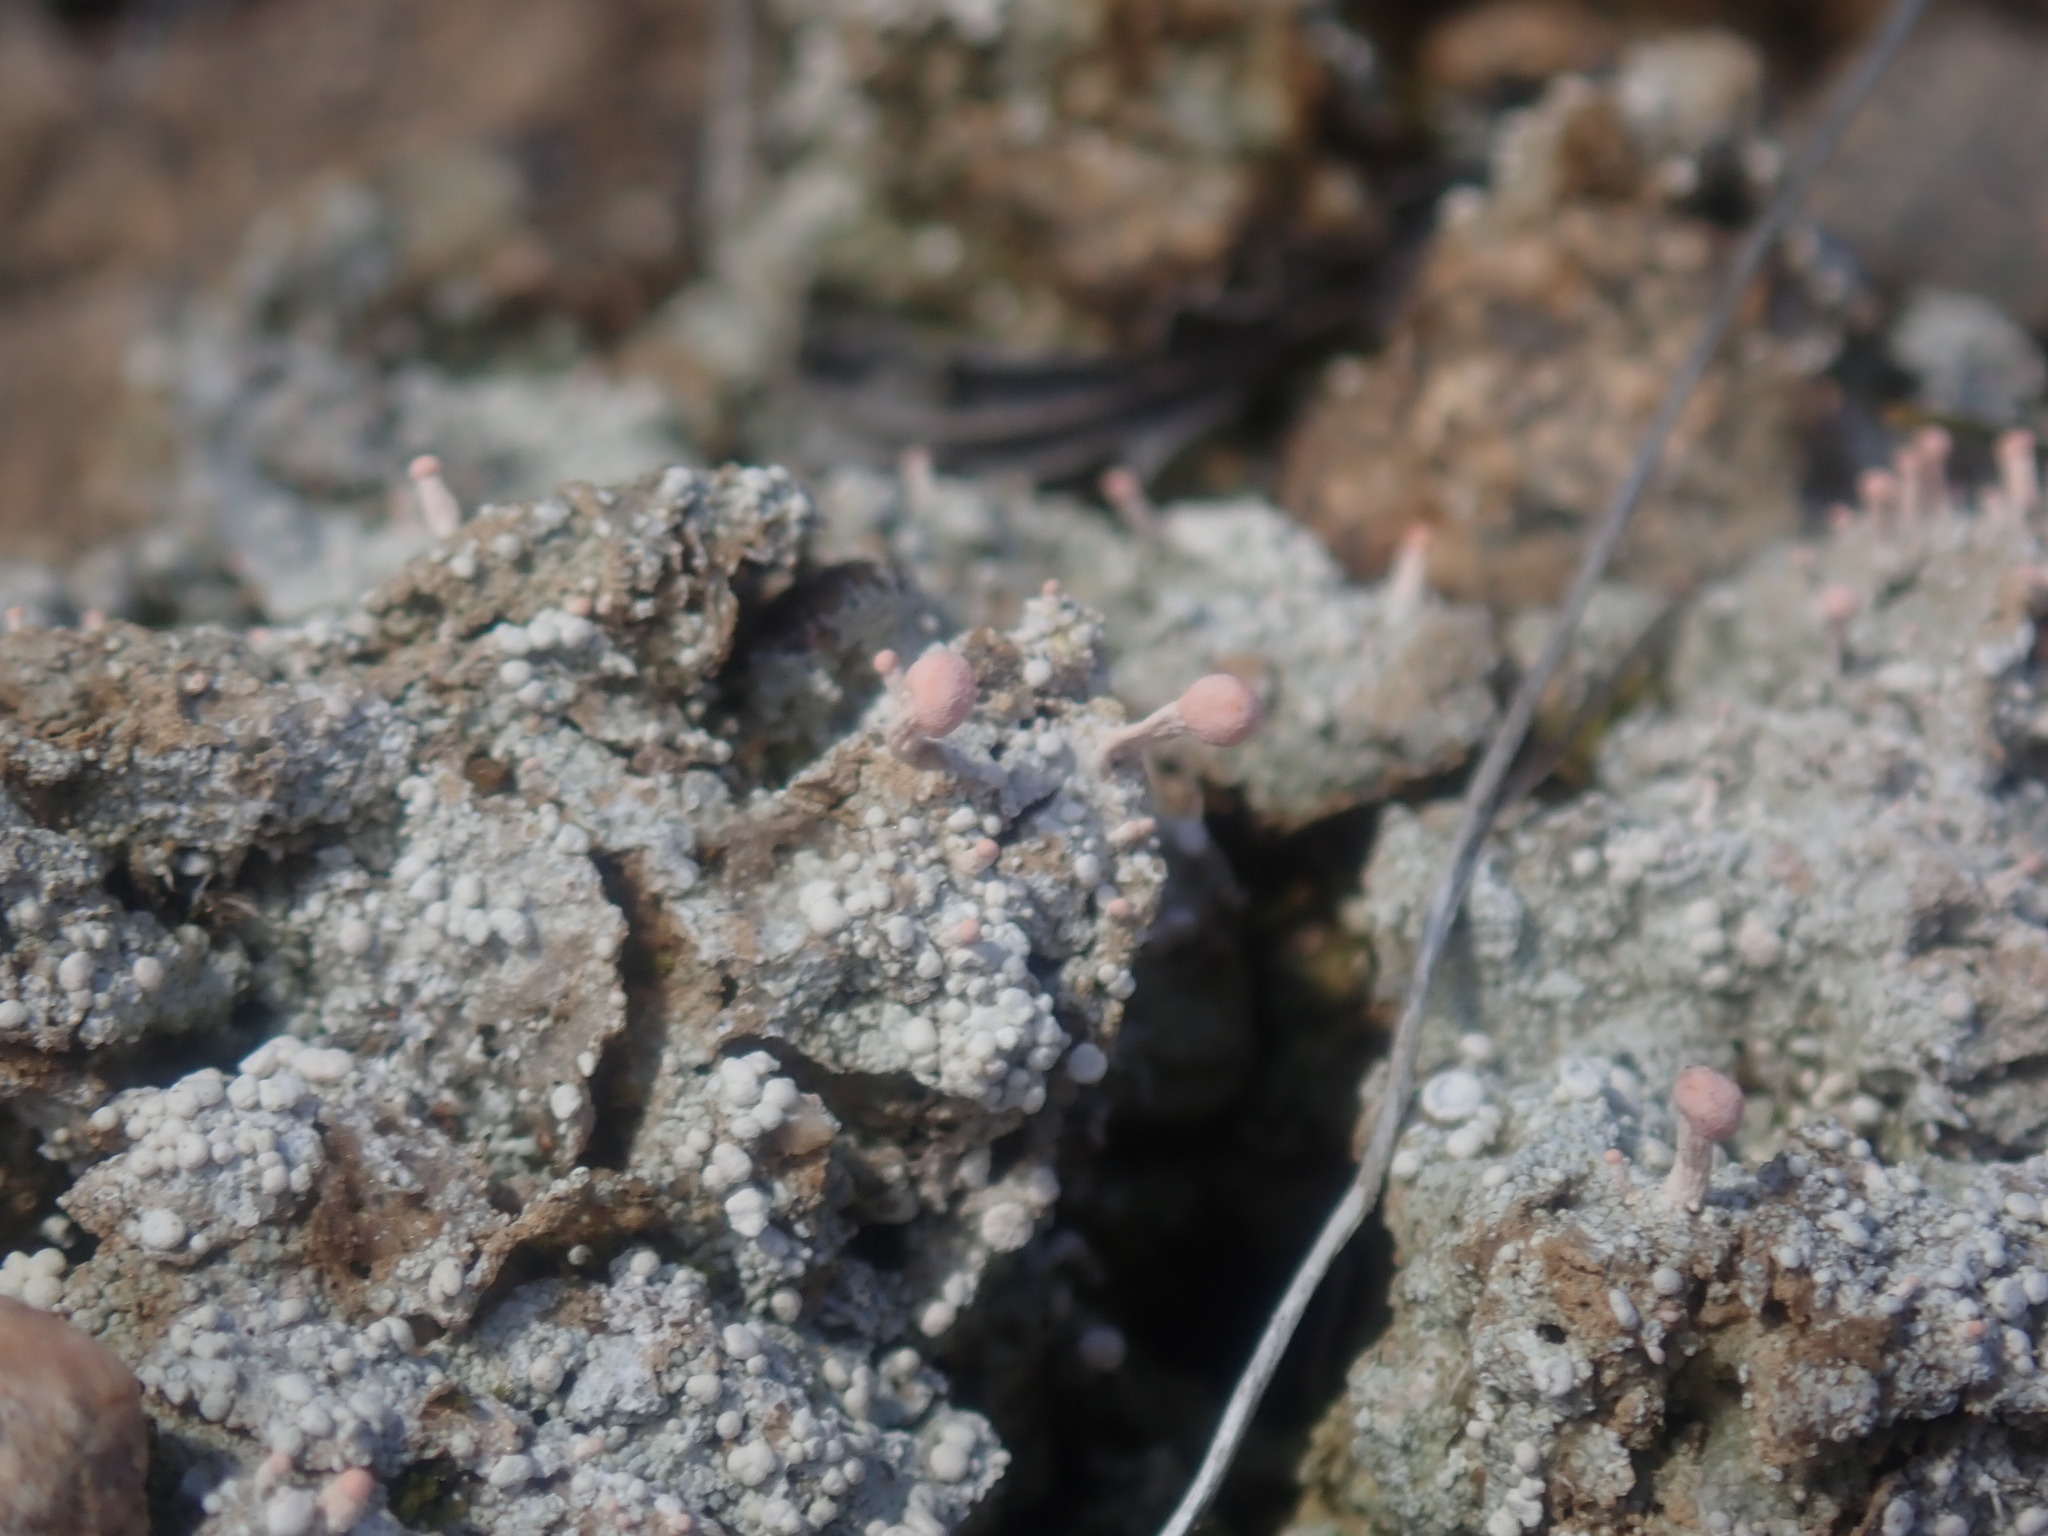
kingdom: Fungi
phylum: Ascomycota
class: Lecanoromycetes
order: Pertusariales
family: Icmadophilaceae
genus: Dibaeis
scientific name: Dibaeis baeomyces
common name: Pink earth lichen
